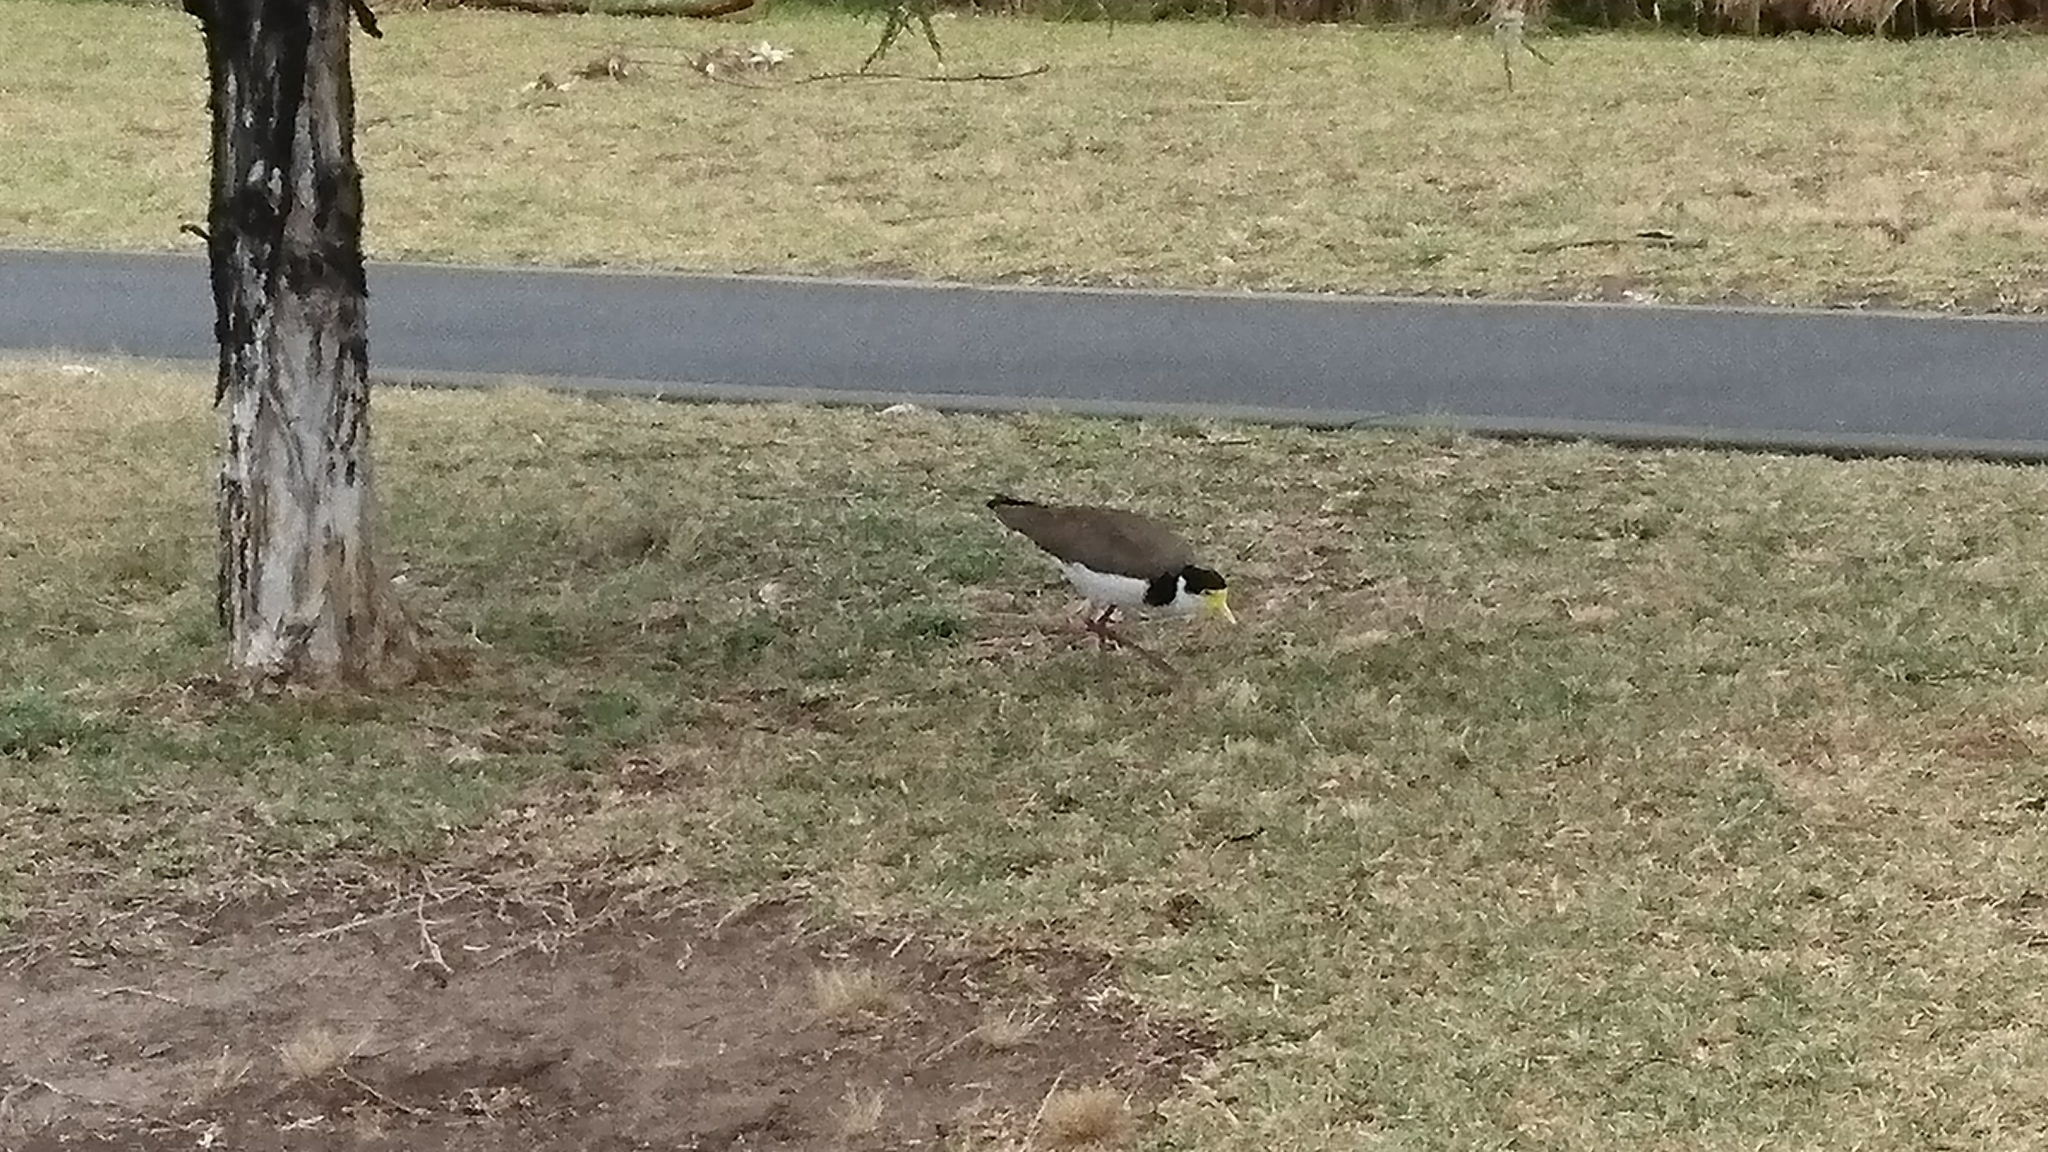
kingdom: Animalia
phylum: Chordata
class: Aves
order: Charadriiformes
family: Charadriidae
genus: Vanellus
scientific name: Vanellus miles
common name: Masked lapwing
